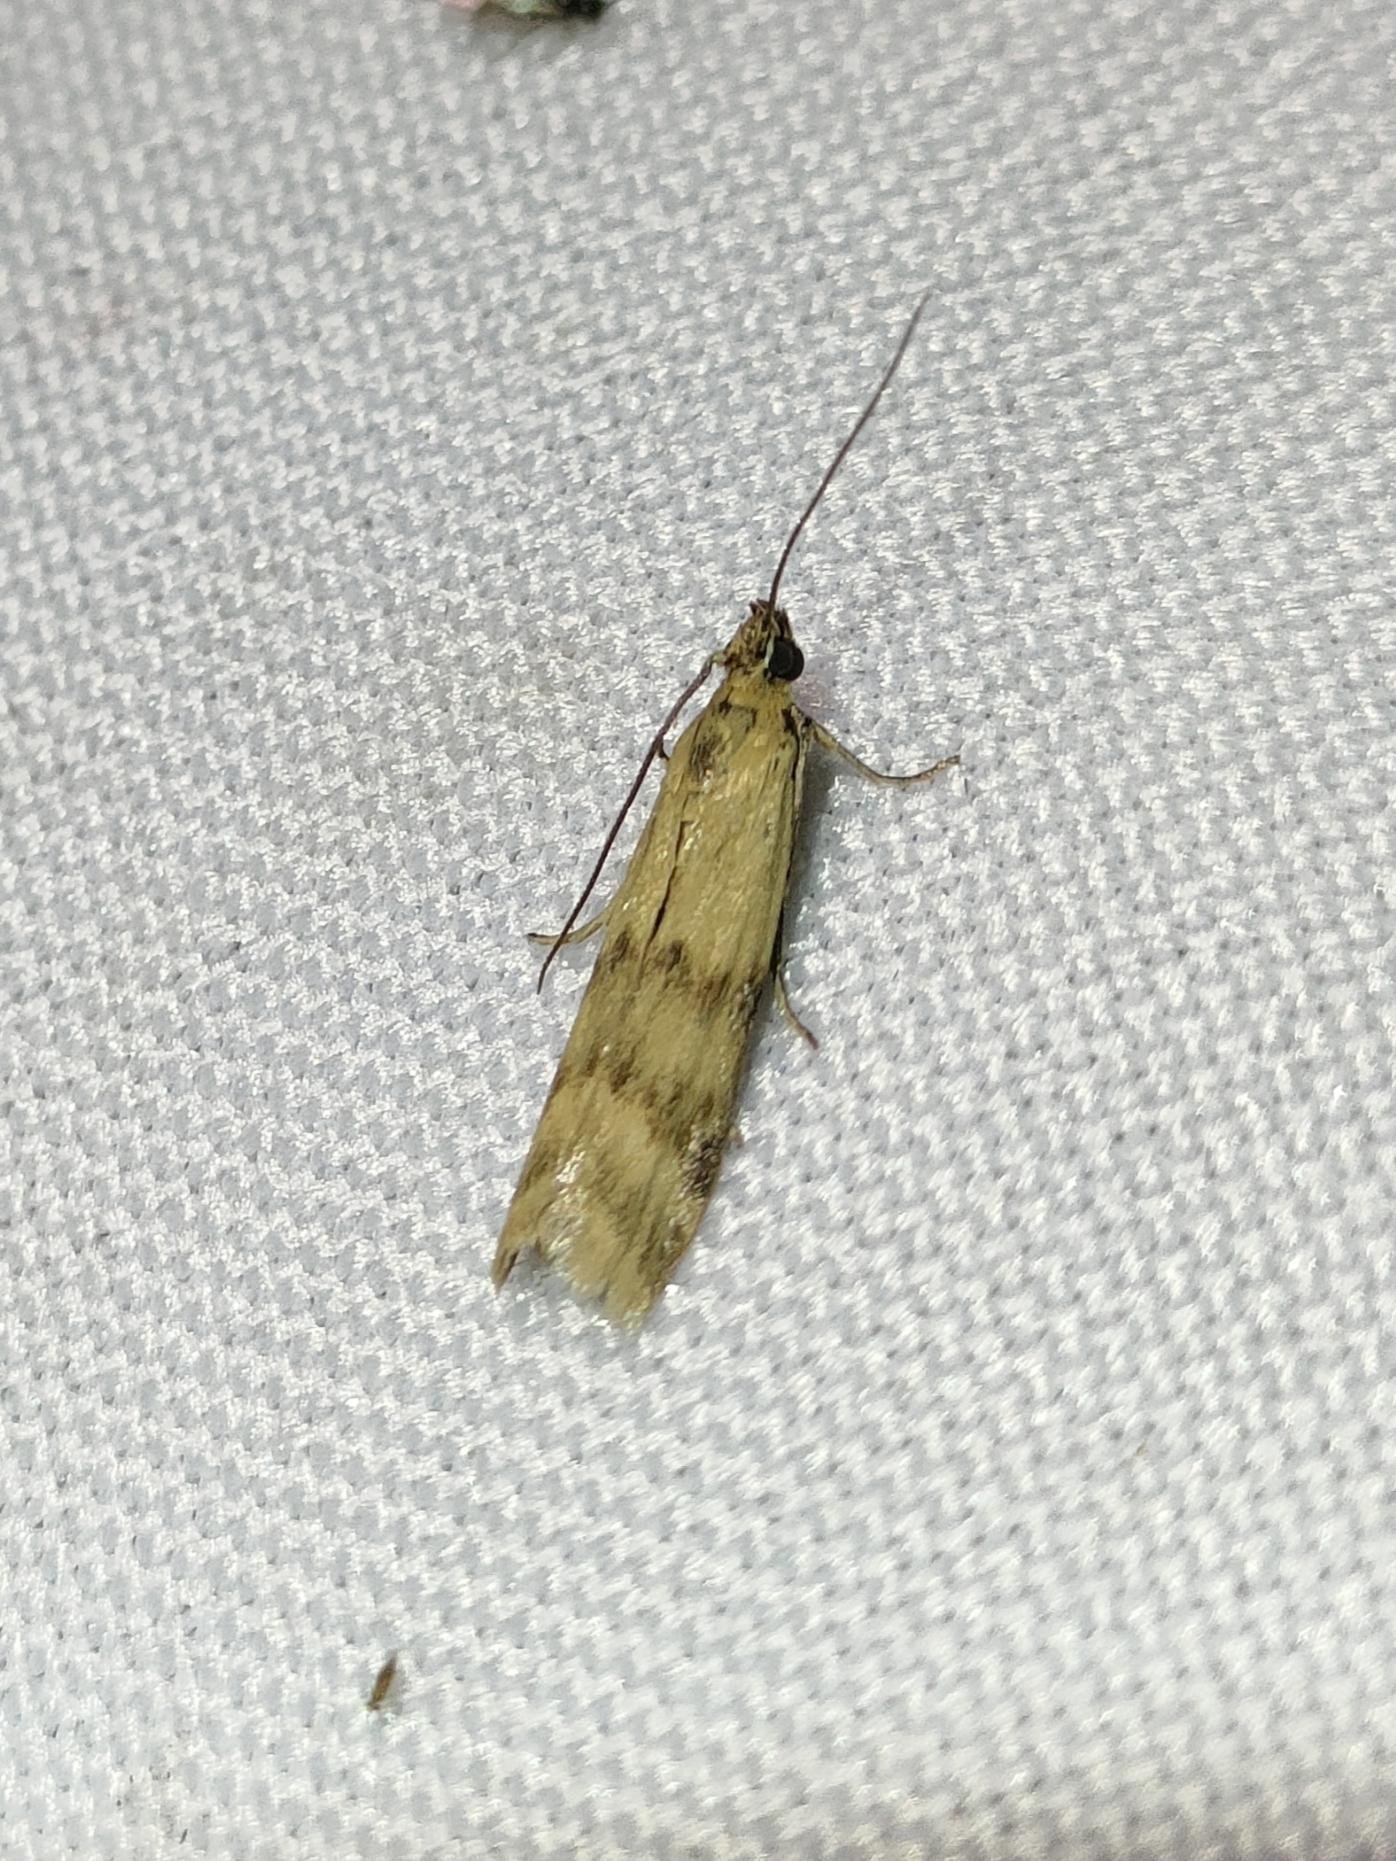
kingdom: Animalia
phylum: Arthropoda
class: Insecta
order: Lepidoptera
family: Pyralidae
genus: Homoeosoma
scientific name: Homoeosoma sinuella
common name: Twin-barred knot-horn
